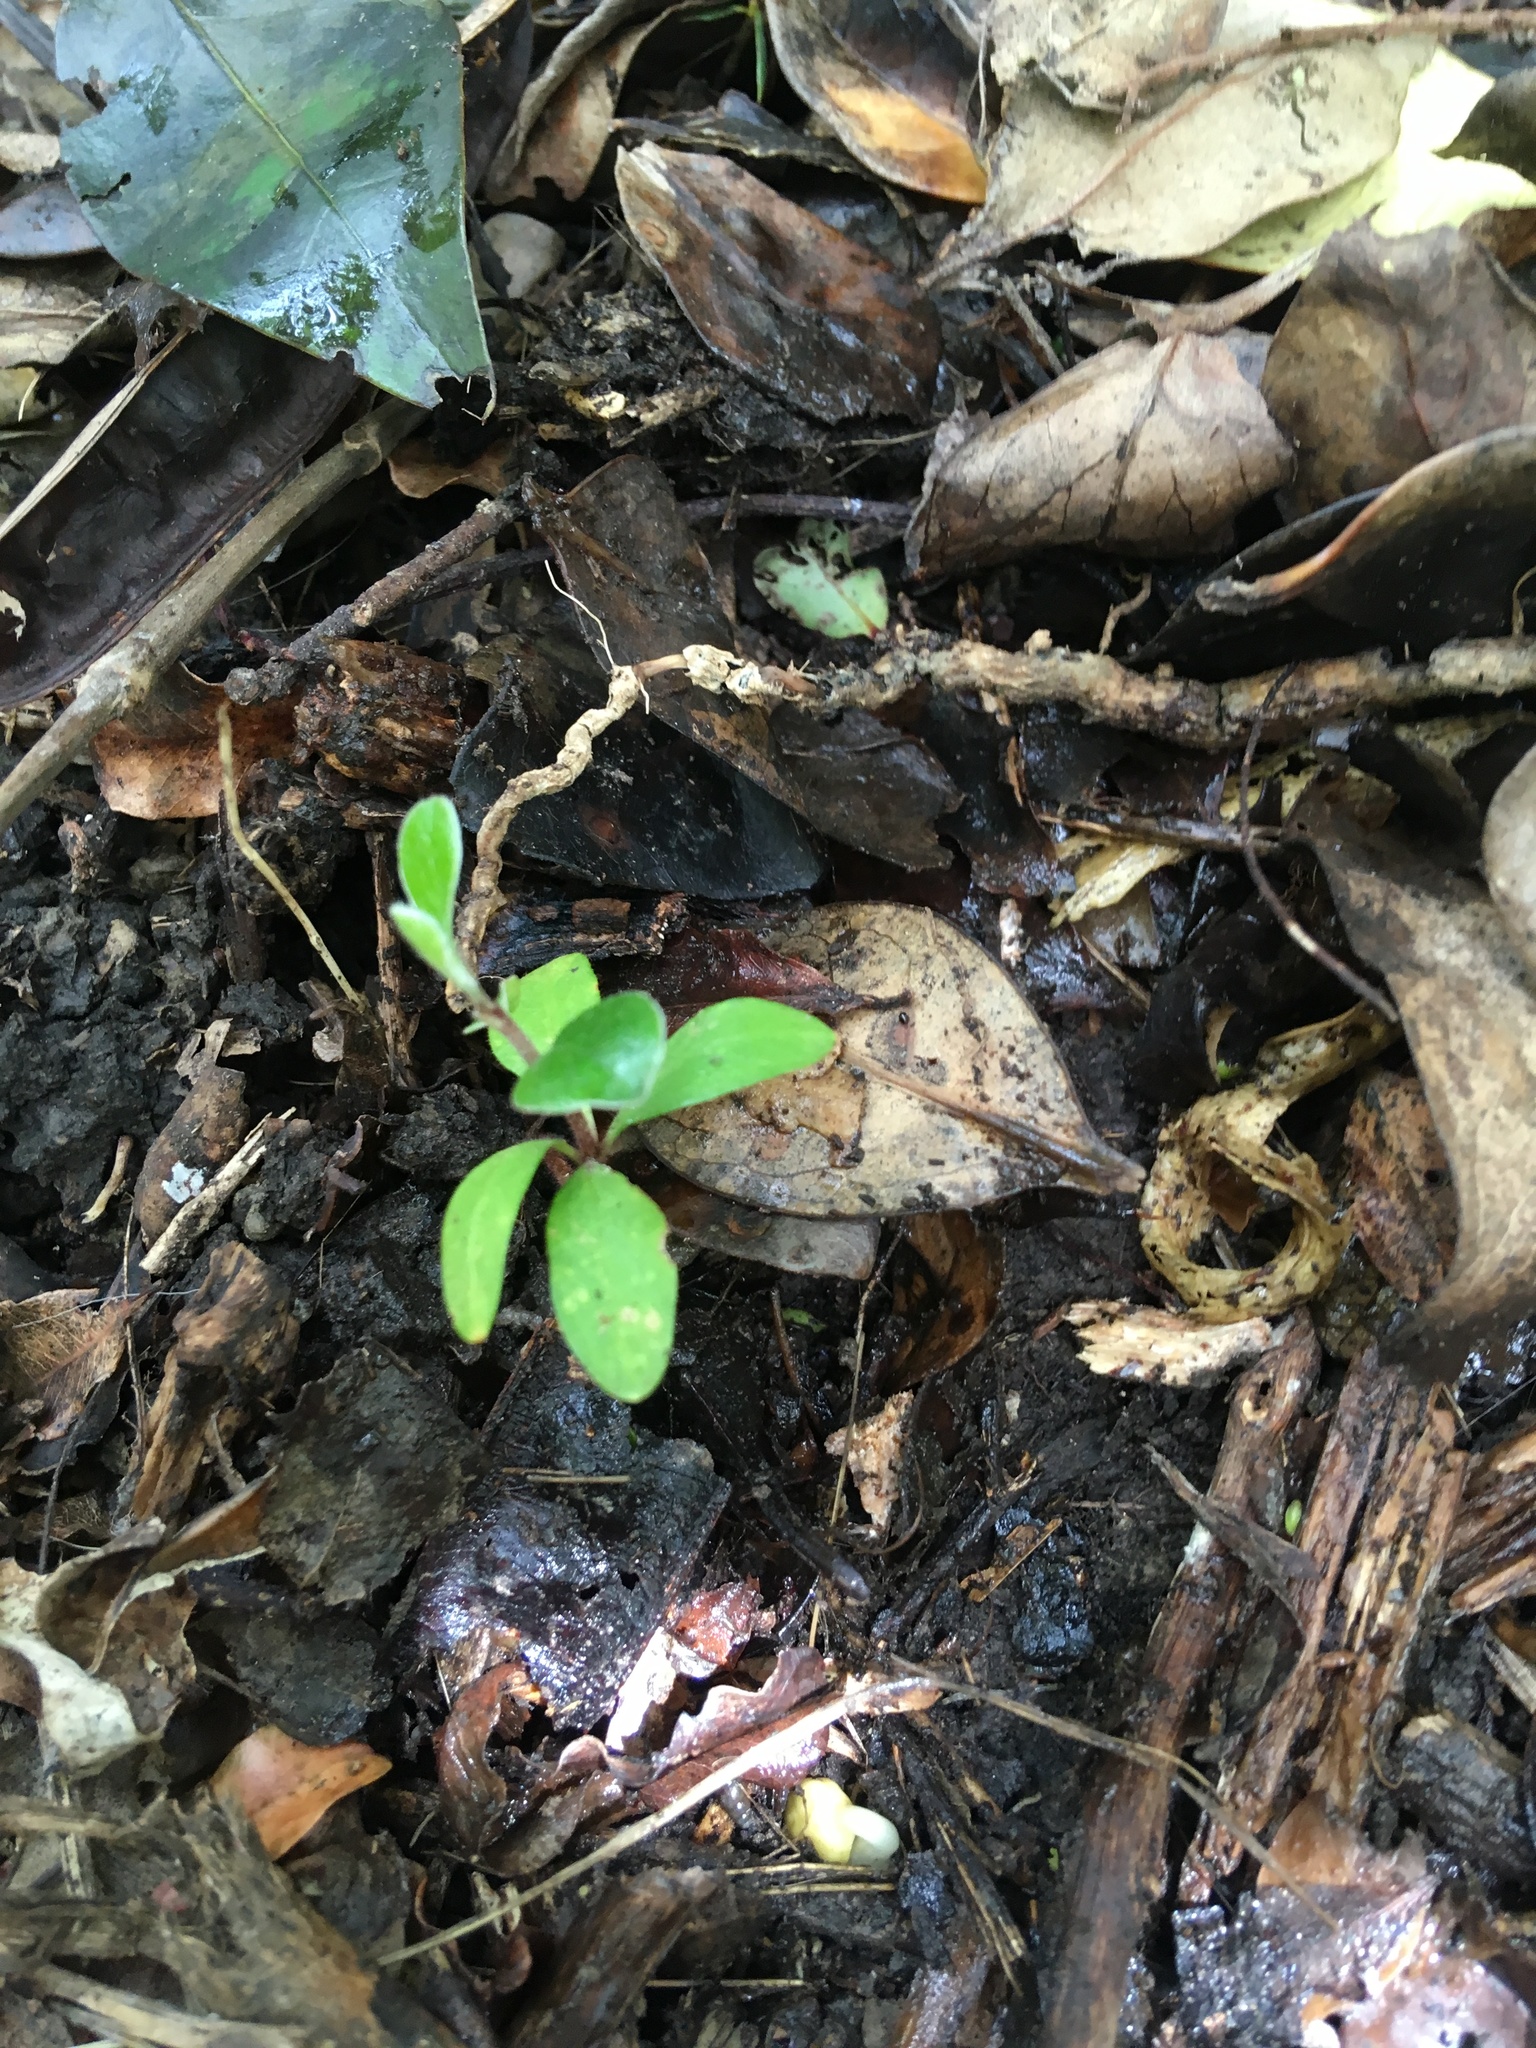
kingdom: Plantae
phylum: Tracheophyta
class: Magnoliopsida
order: Apiales
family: Pittosporaceae
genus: Pittosporum
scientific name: Pittosporum crassifolium
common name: Karo
